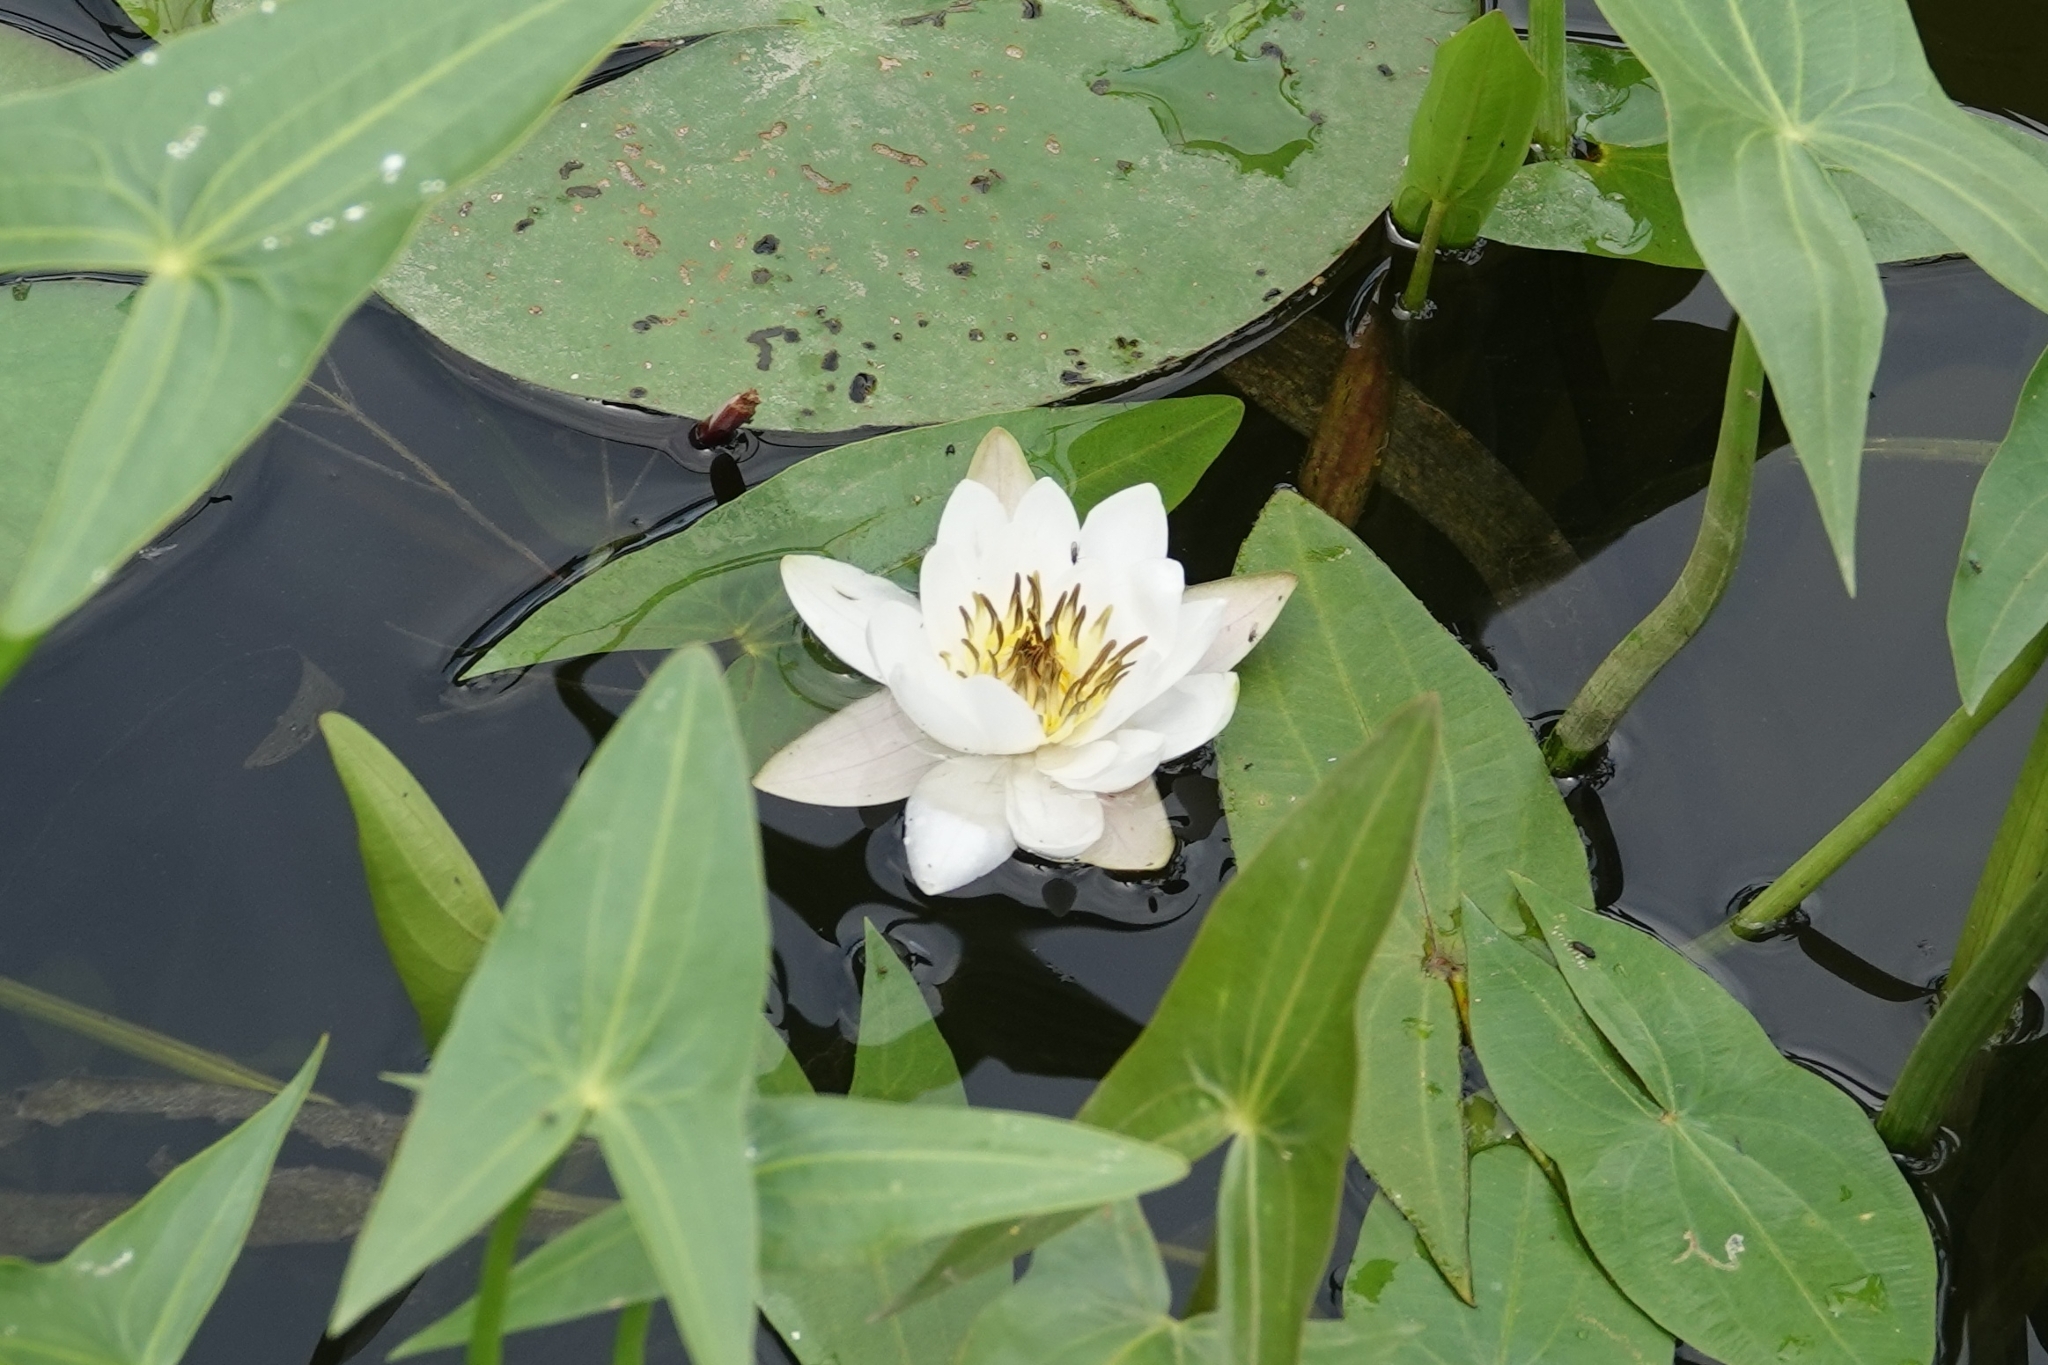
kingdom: Plantae
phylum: Tracheophyta
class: Magnoliopsida
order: Nymphaeales
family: Nymphaeaceae
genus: Nymphaea
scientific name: Nymphaea candida
